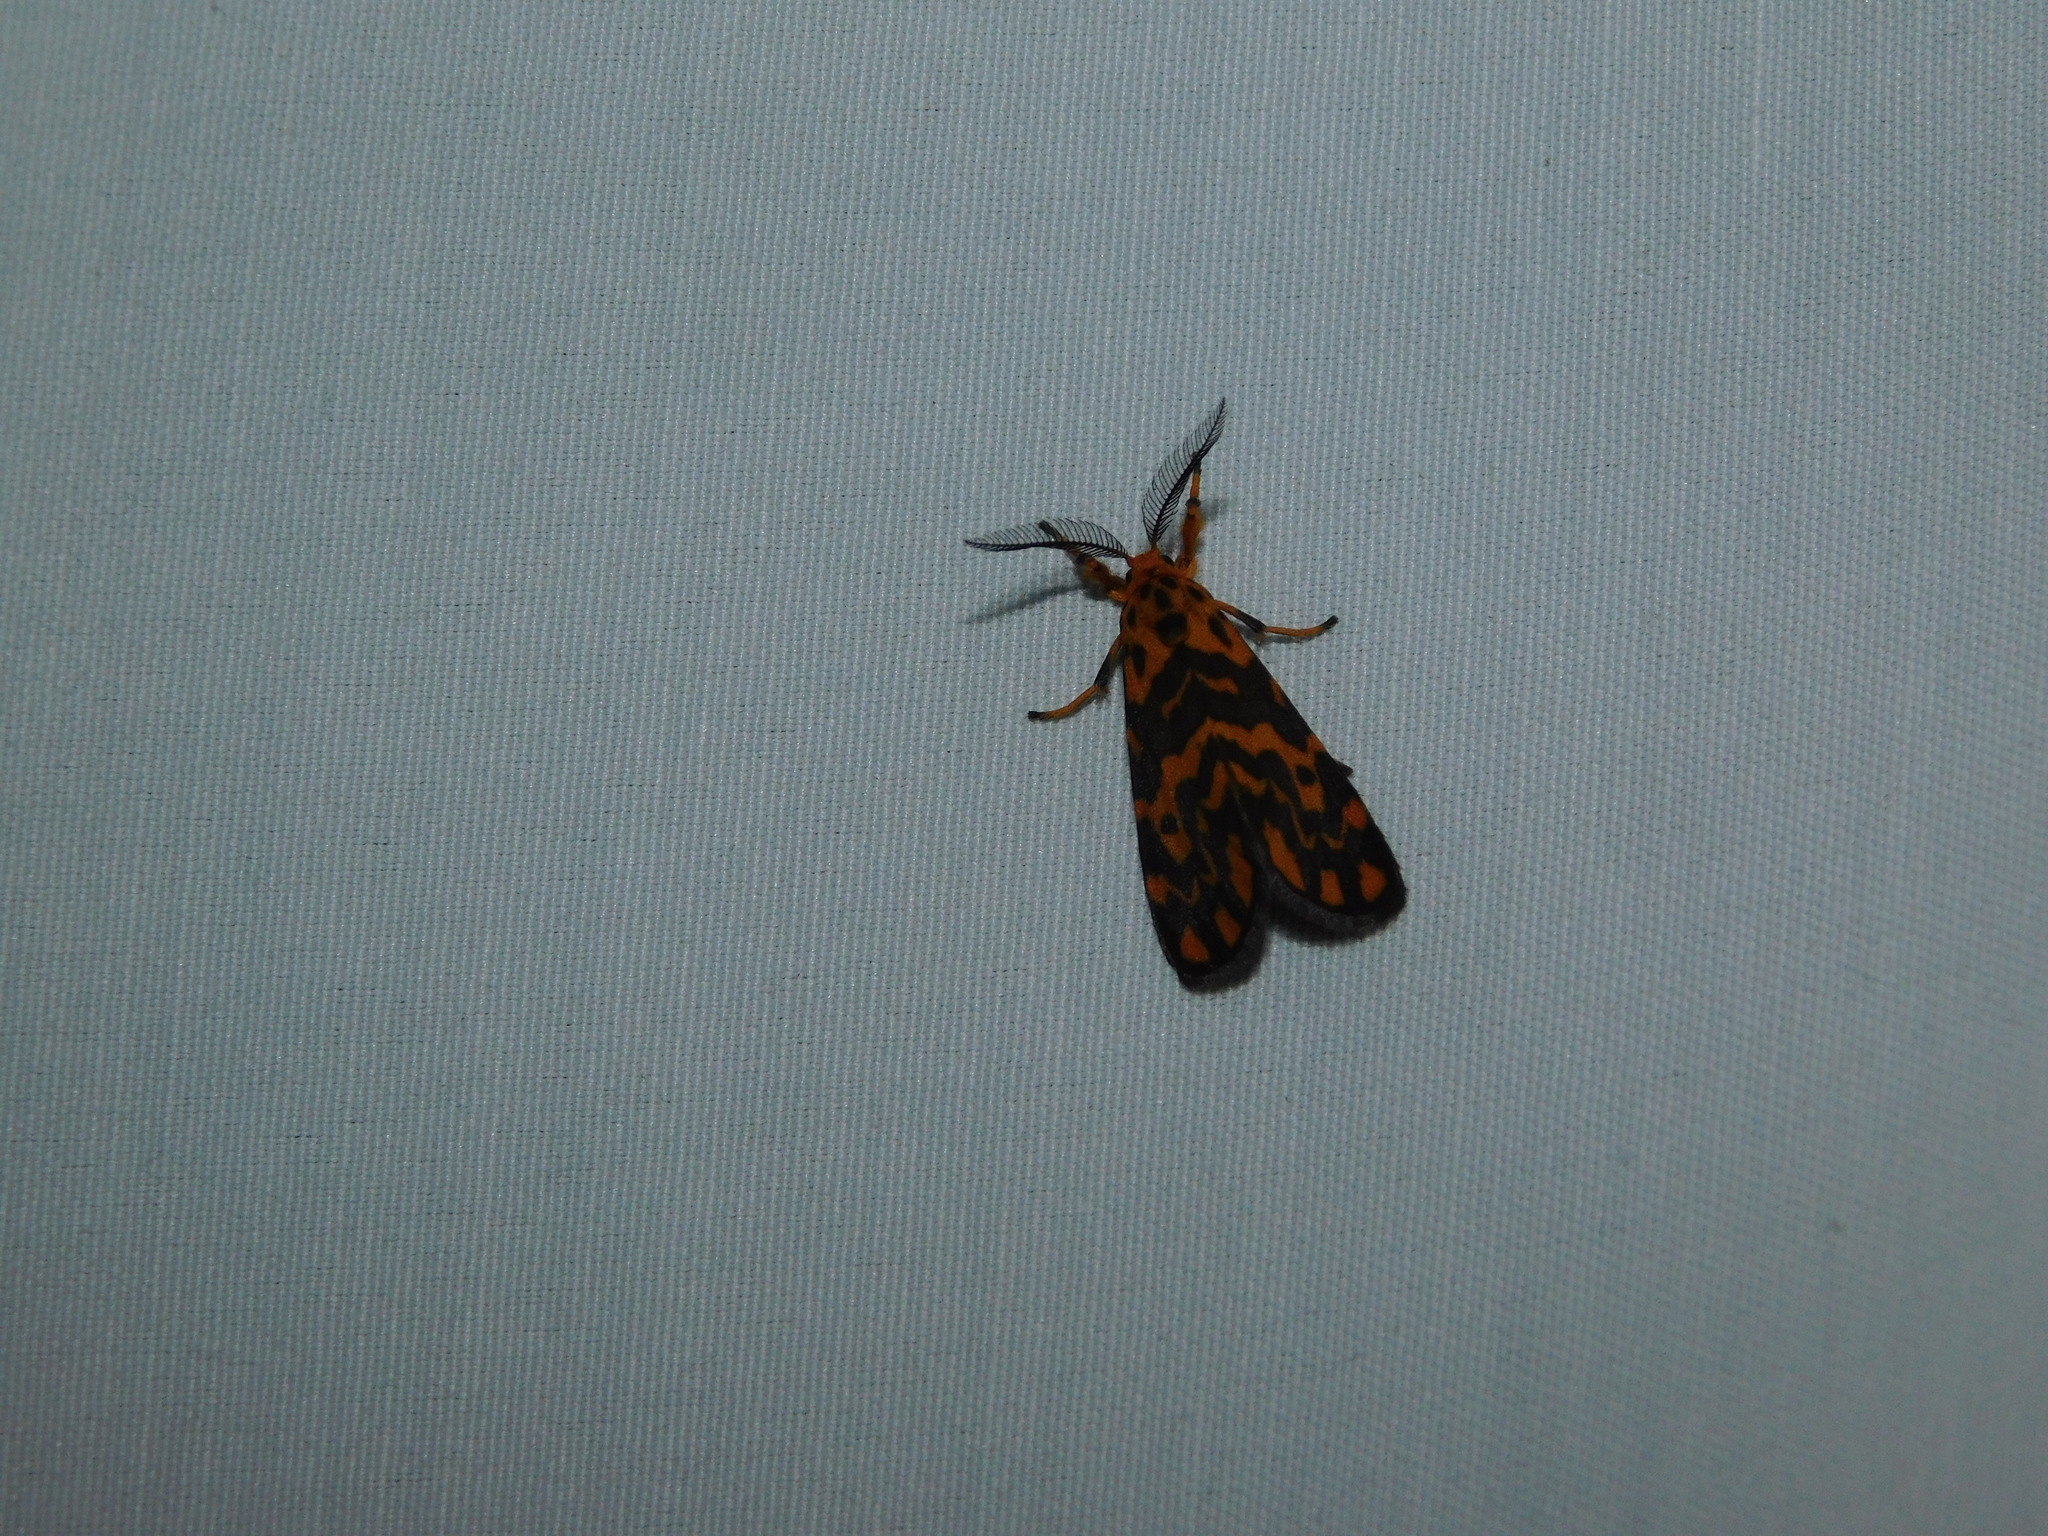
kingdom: Animalia
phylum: Arthropoda
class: Insecta
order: Lepidoptera
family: Erebidae
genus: Nepita
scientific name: Nepita conferta
